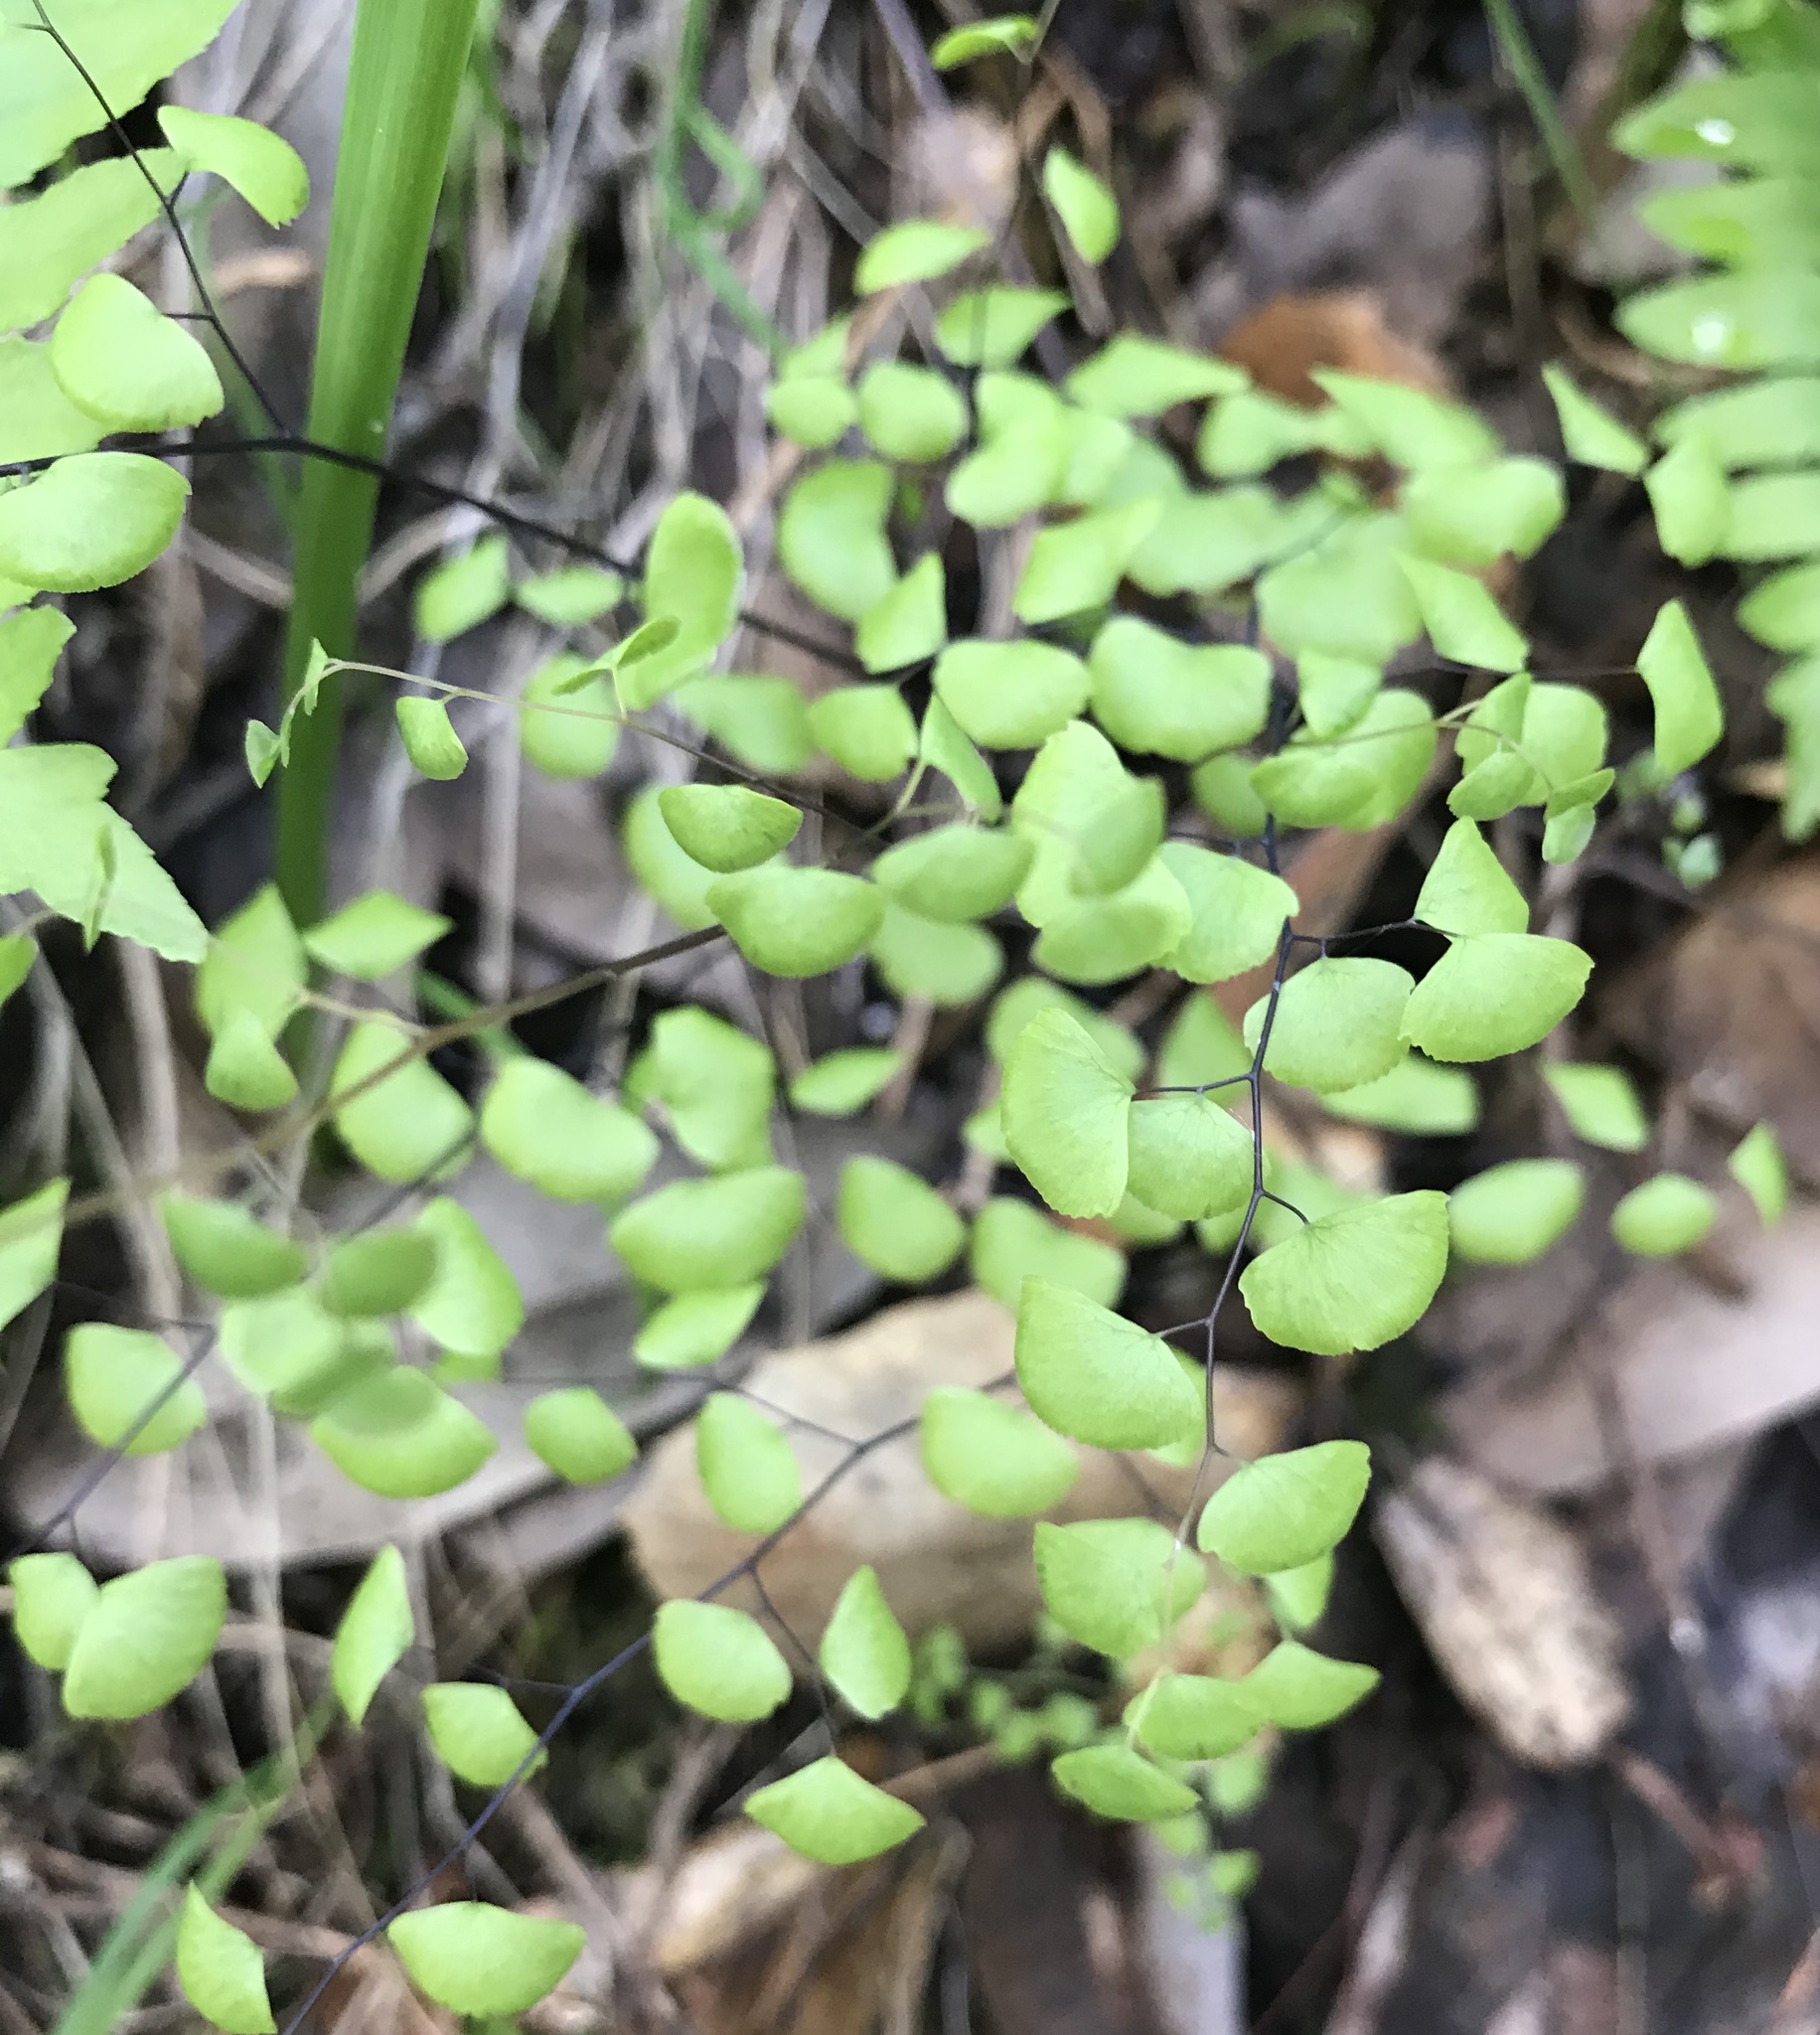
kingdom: Plantae
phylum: Tracheophyta
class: Polypodiopsida
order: Polypodiales
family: Pteridaceae
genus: Adiantum
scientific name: Adiantum jordanii
